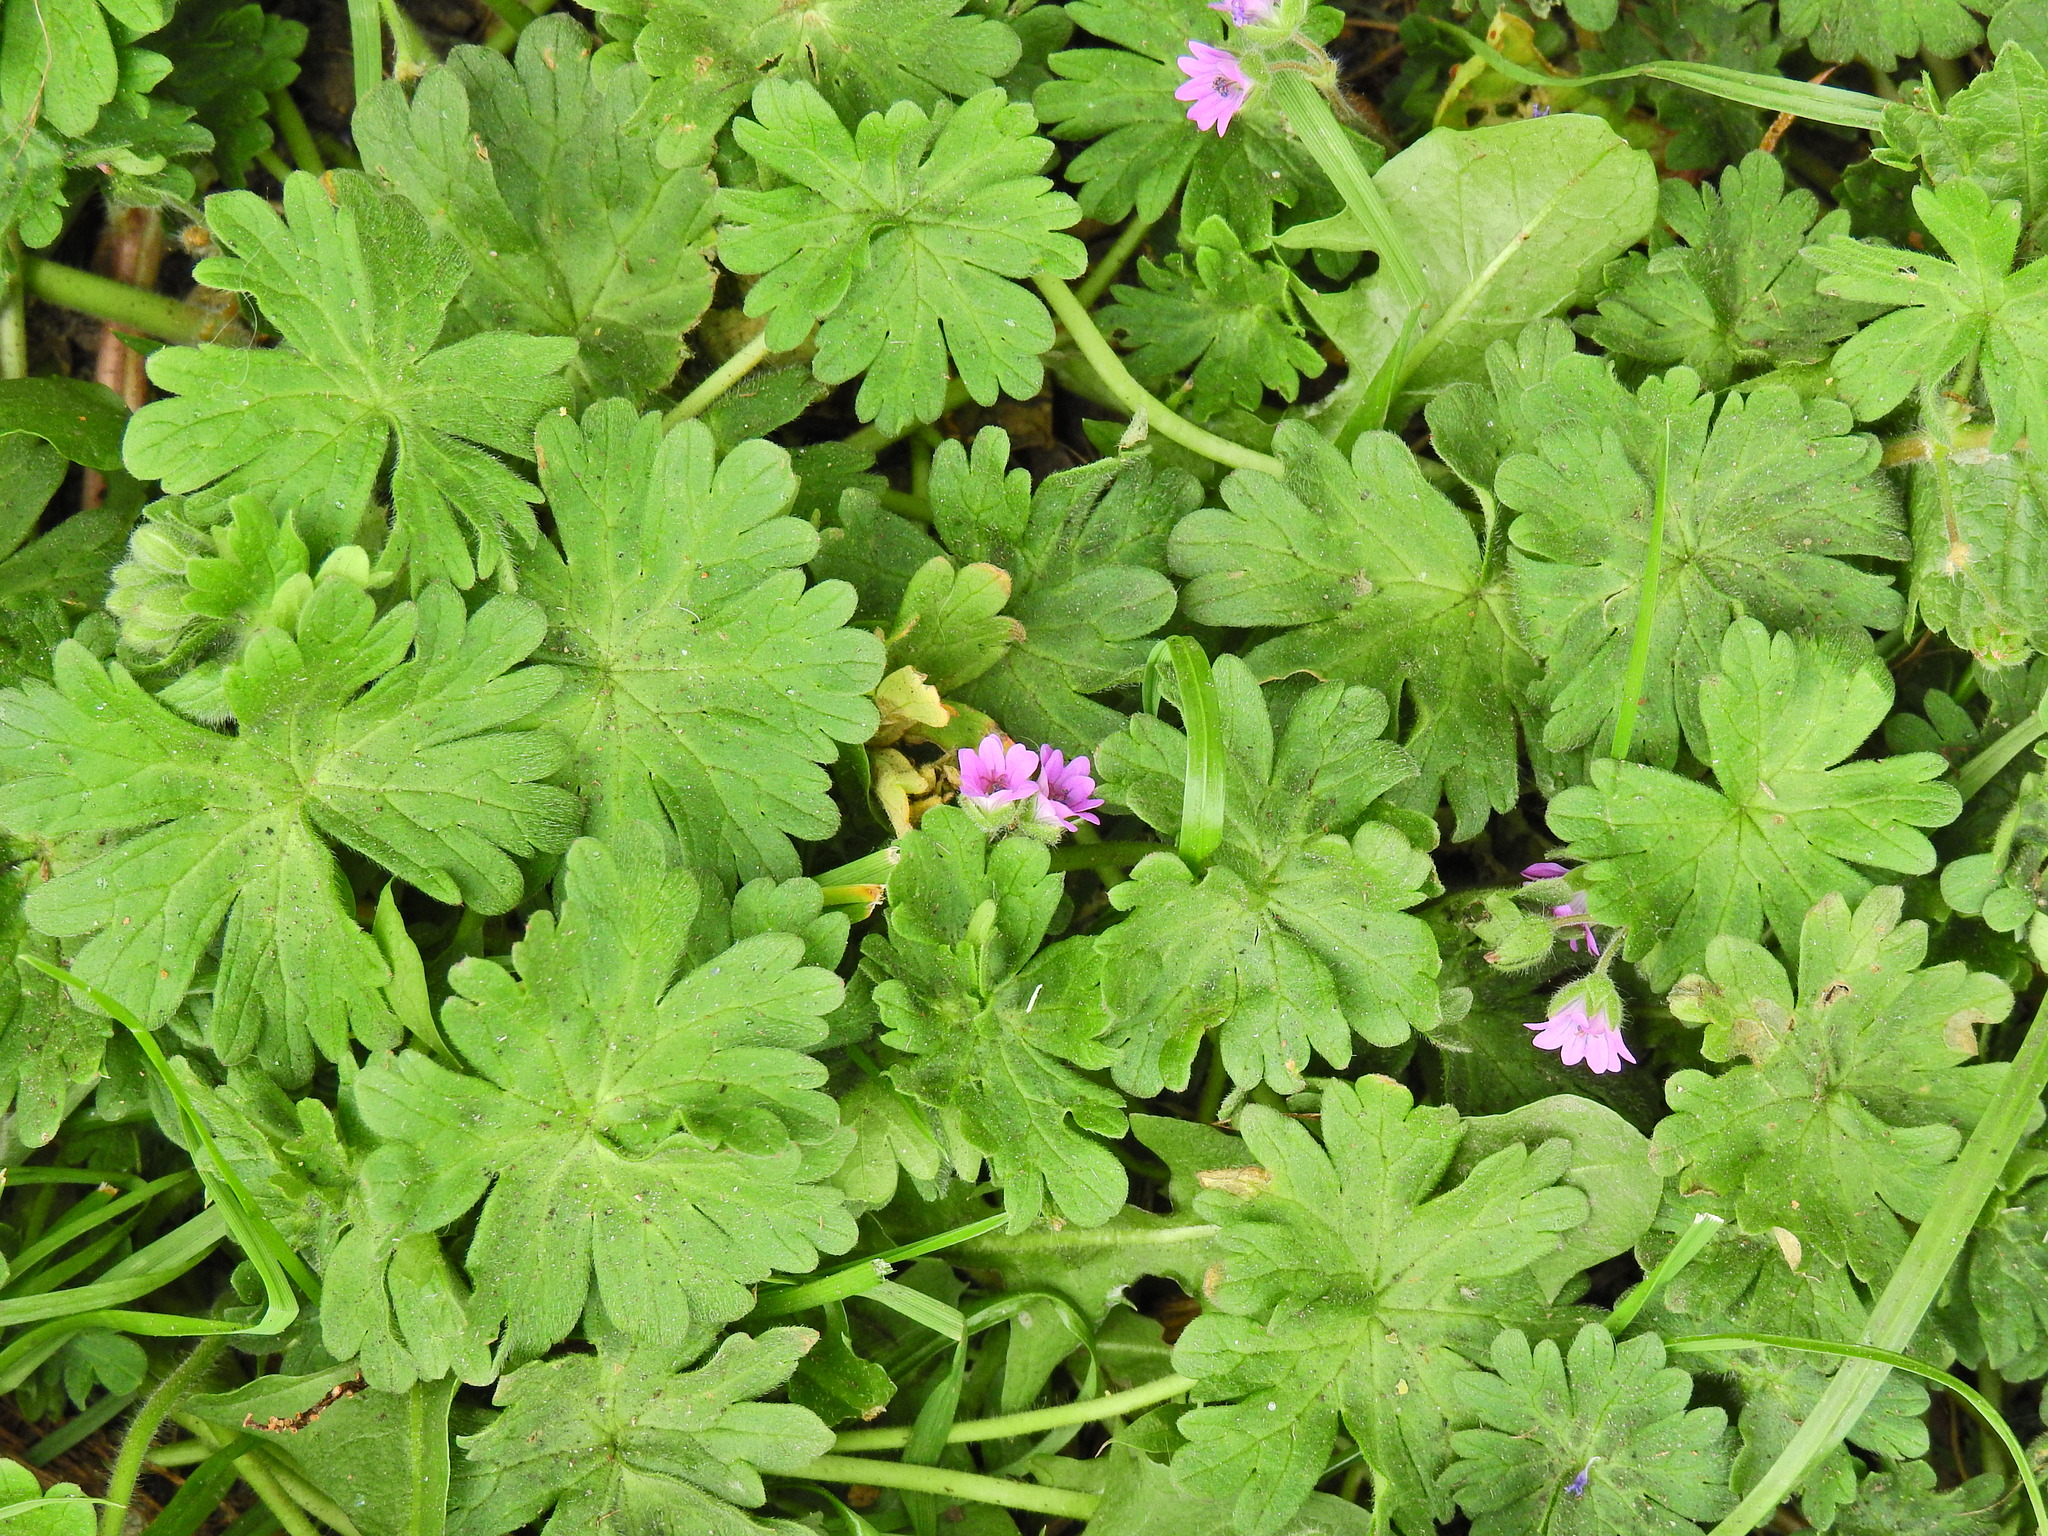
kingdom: Plantae
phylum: Tracheophyta
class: Magnoliopsida
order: Geraniales
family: Geraniaceae
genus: Geranium
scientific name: Geranium molle
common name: Dove's-foot crane's-bill
